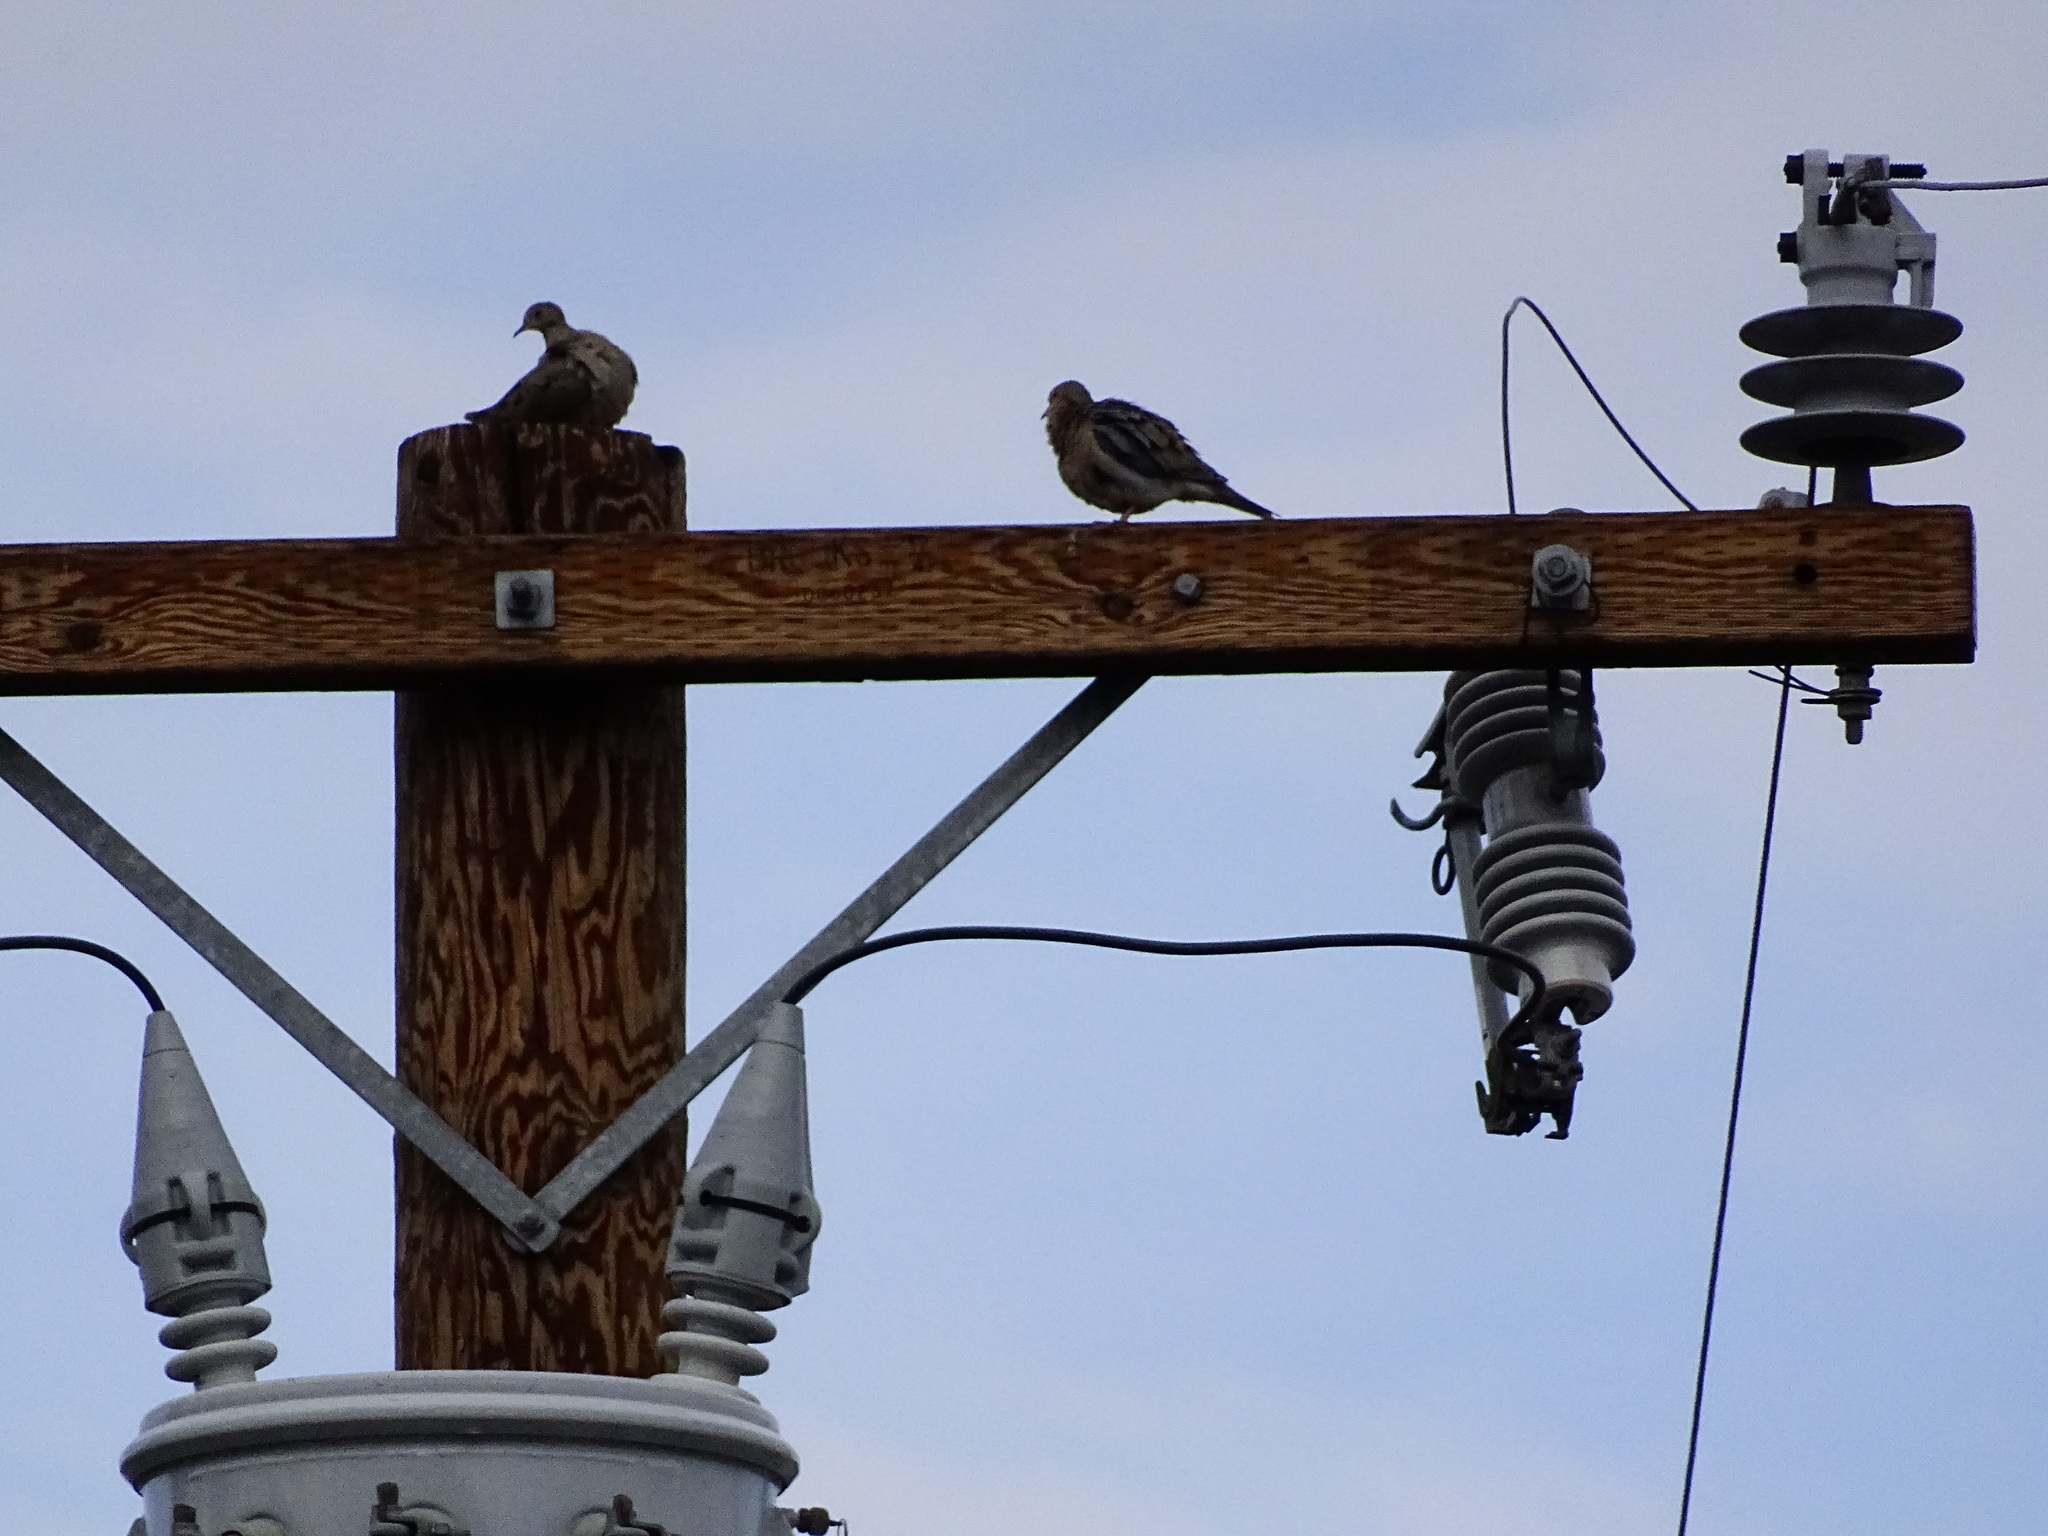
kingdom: Animalia
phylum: Chordata
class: Aves
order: Columbiformes
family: Columbidae
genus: Zenaida
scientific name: Zenaida macroura
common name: Mourning dove
